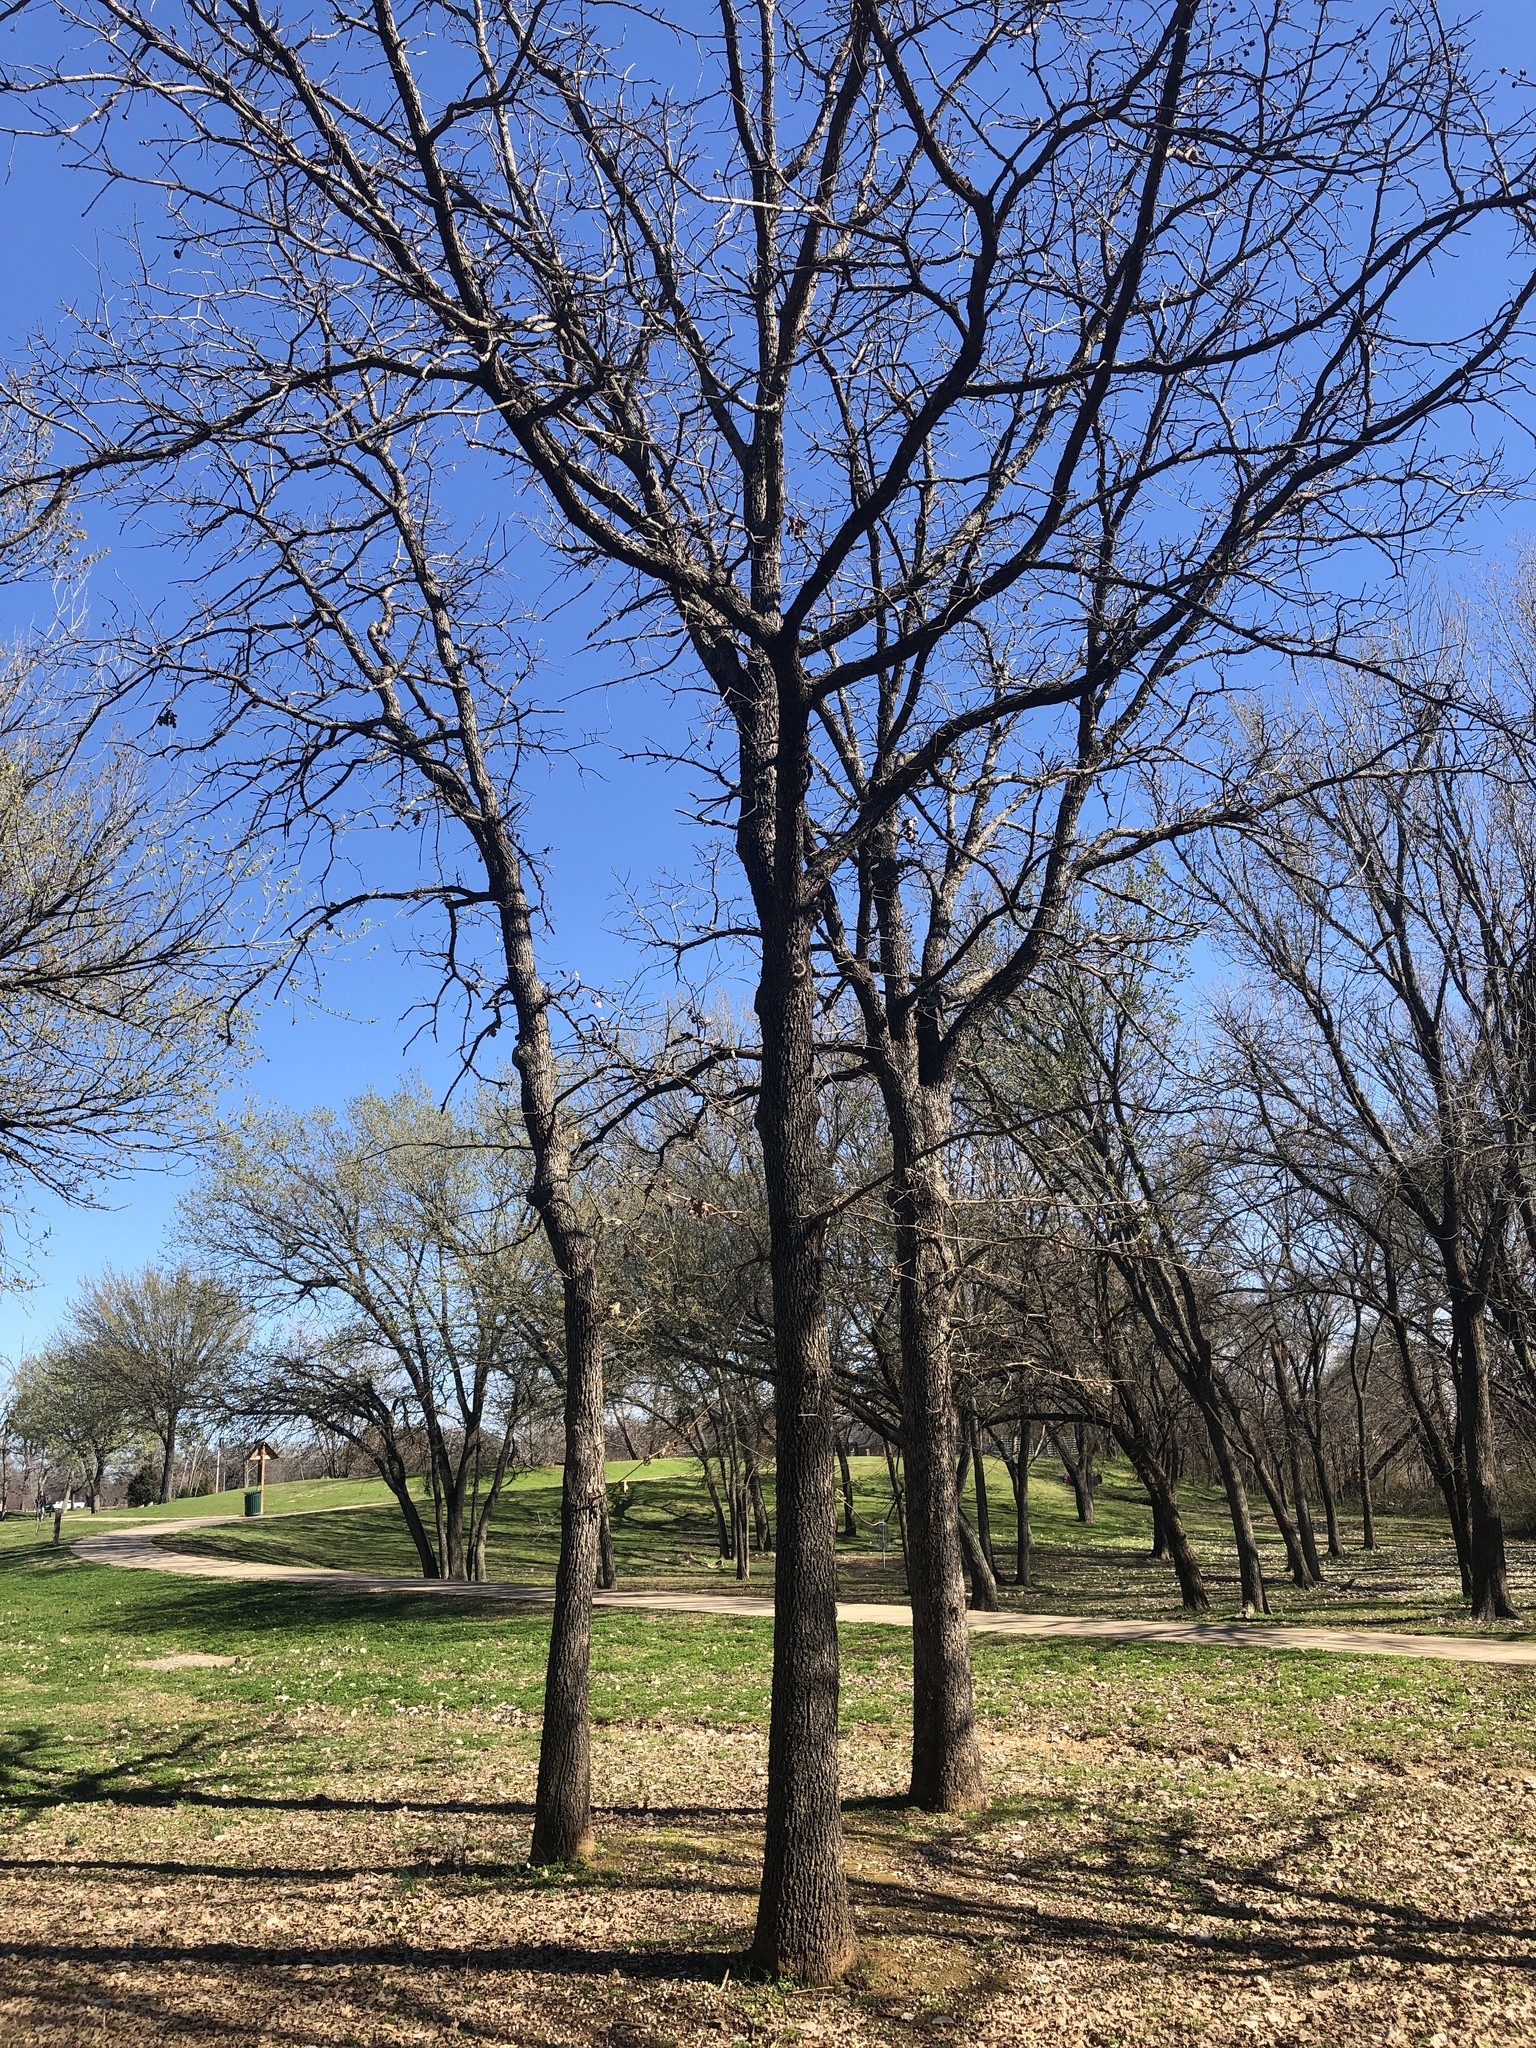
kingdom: Plantae
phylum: Tracheophyta
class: Magnoliopsida
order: Fagales
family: Fagaceae
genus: Quercus
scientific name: Quercus stellata
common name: Post oak
